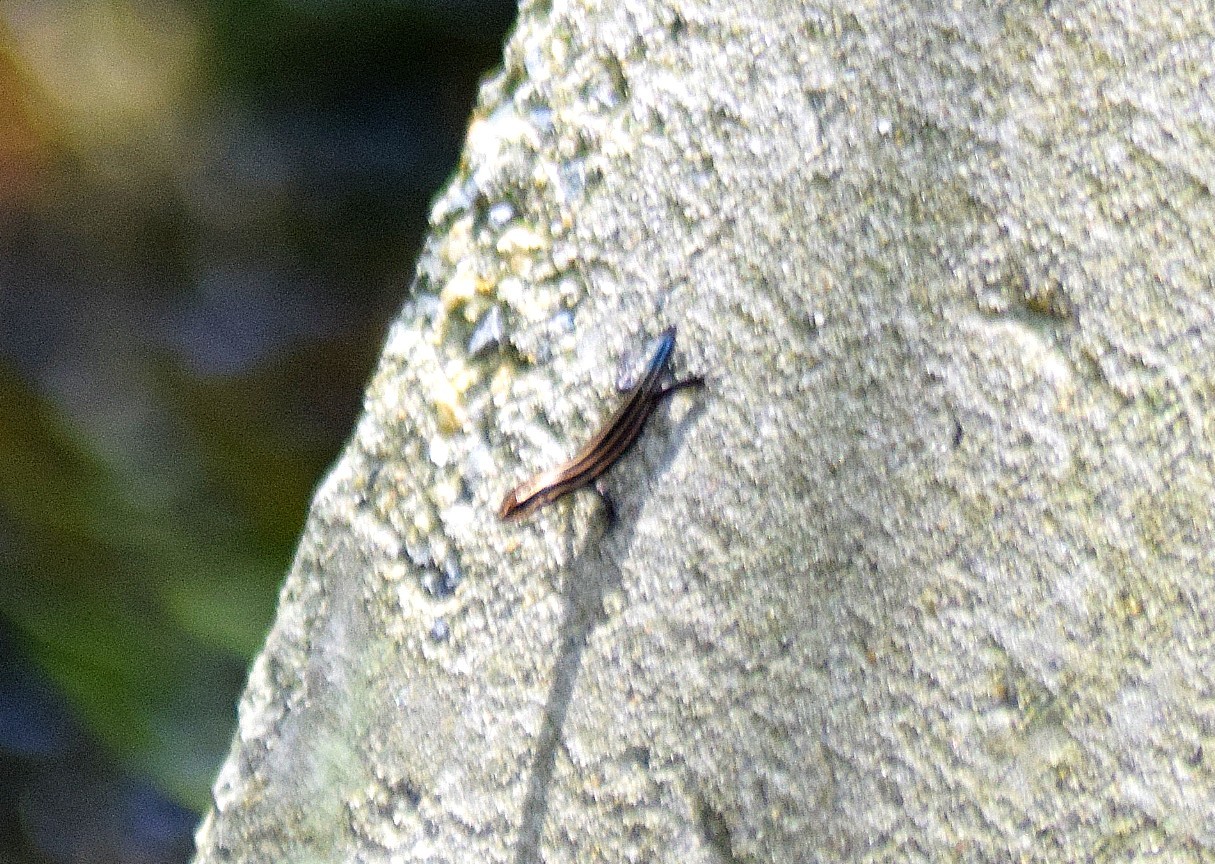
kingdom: Animalia
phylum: Chordata
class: Squamata
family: Scincidae
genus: Plestiodon
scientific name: Plestiodon fasciatus
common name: Five-lined skink
